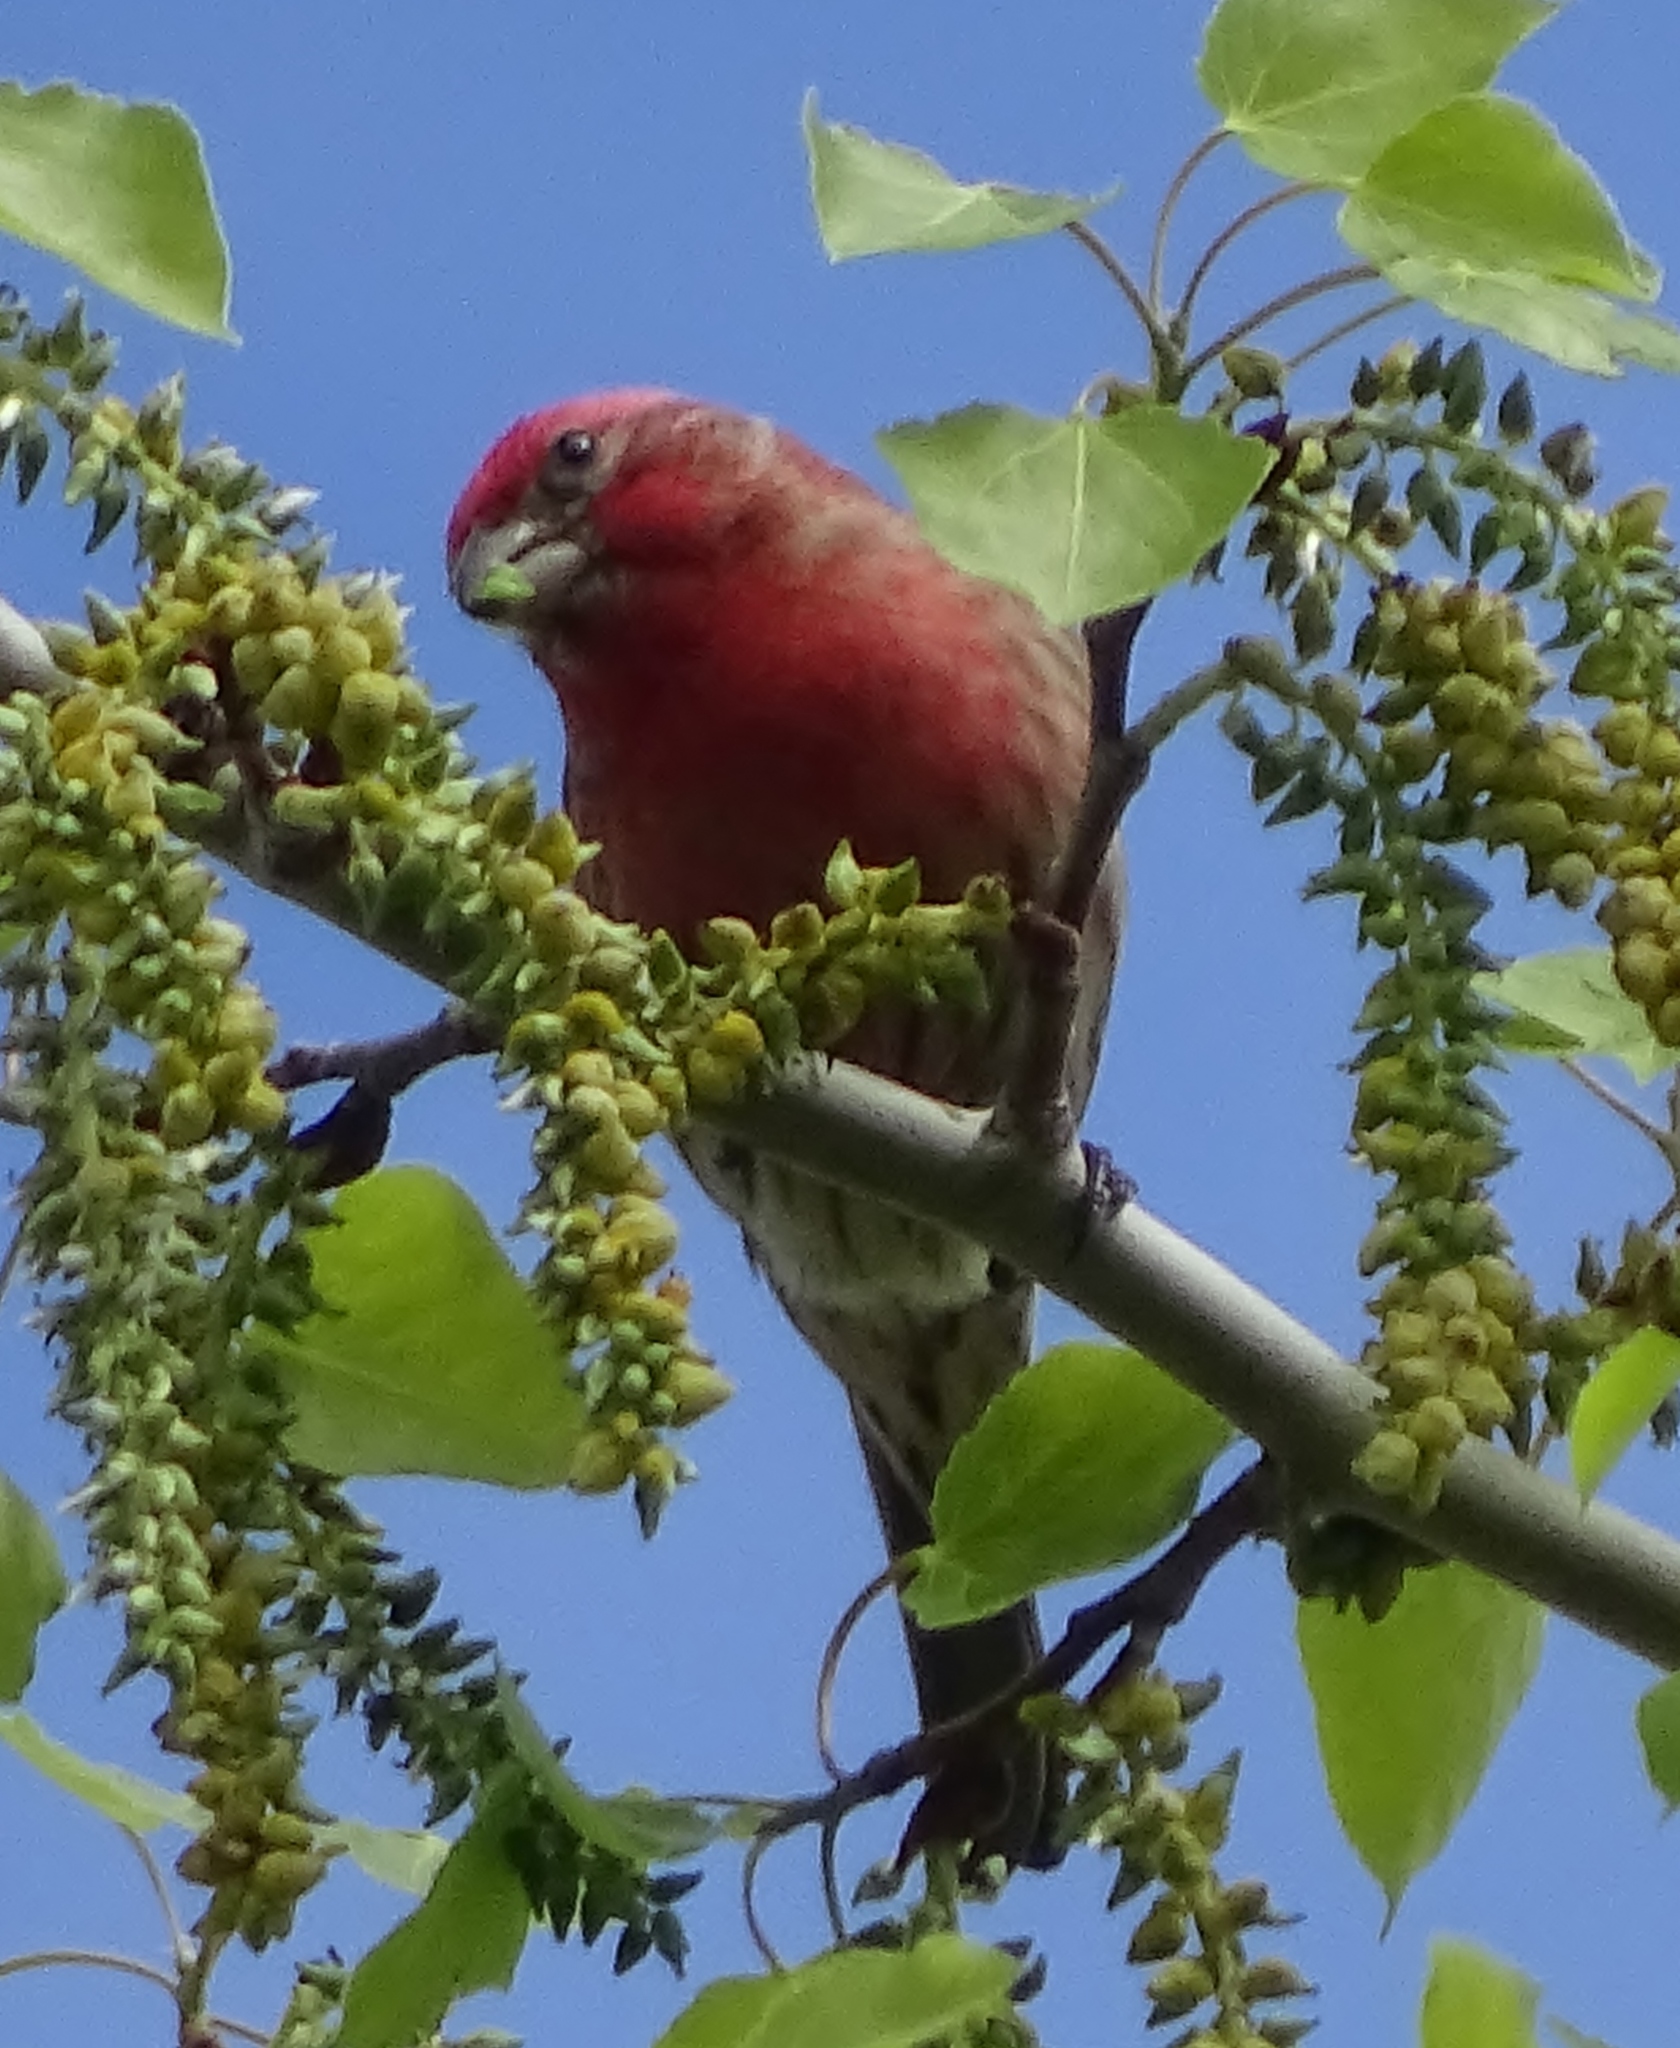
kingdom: Animalia
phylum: Chordata
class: Aves
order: Passeriformes
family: Fringillidae
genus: Haemorhous
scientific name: Haemorhous mexicanus
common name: House finch
